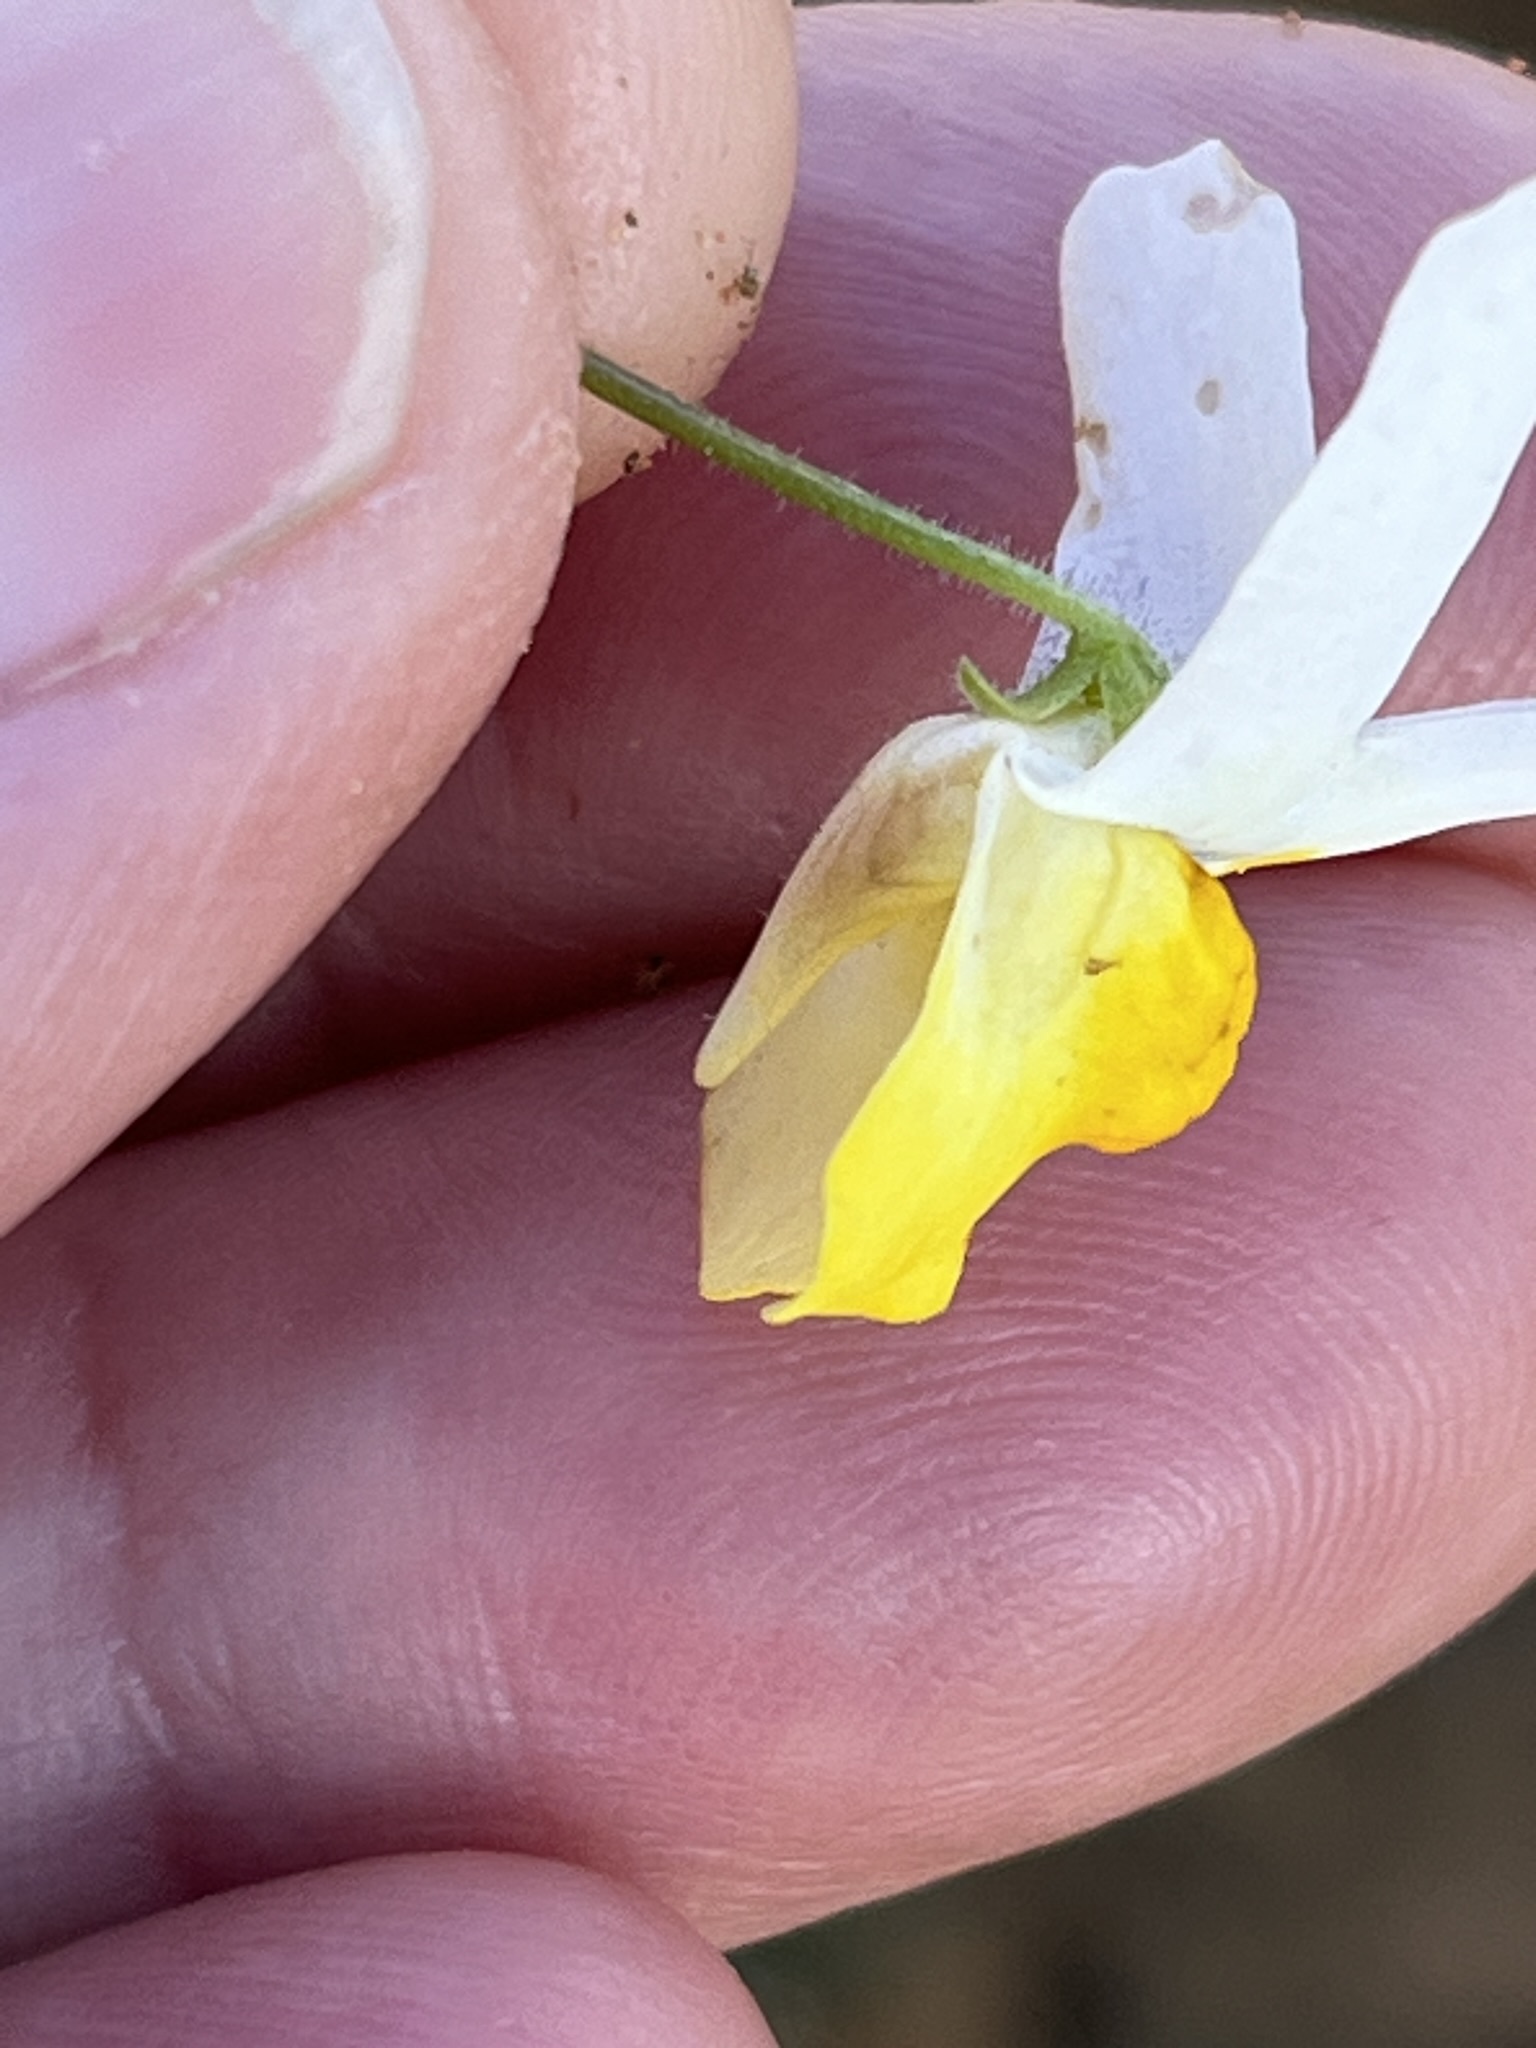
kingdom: Plantae
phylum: Tracheophyta
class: Magnoliopsida
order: Lamiales
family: Scrophulariaceae
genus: Nemesia
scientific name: Nemesia anisocarpa
